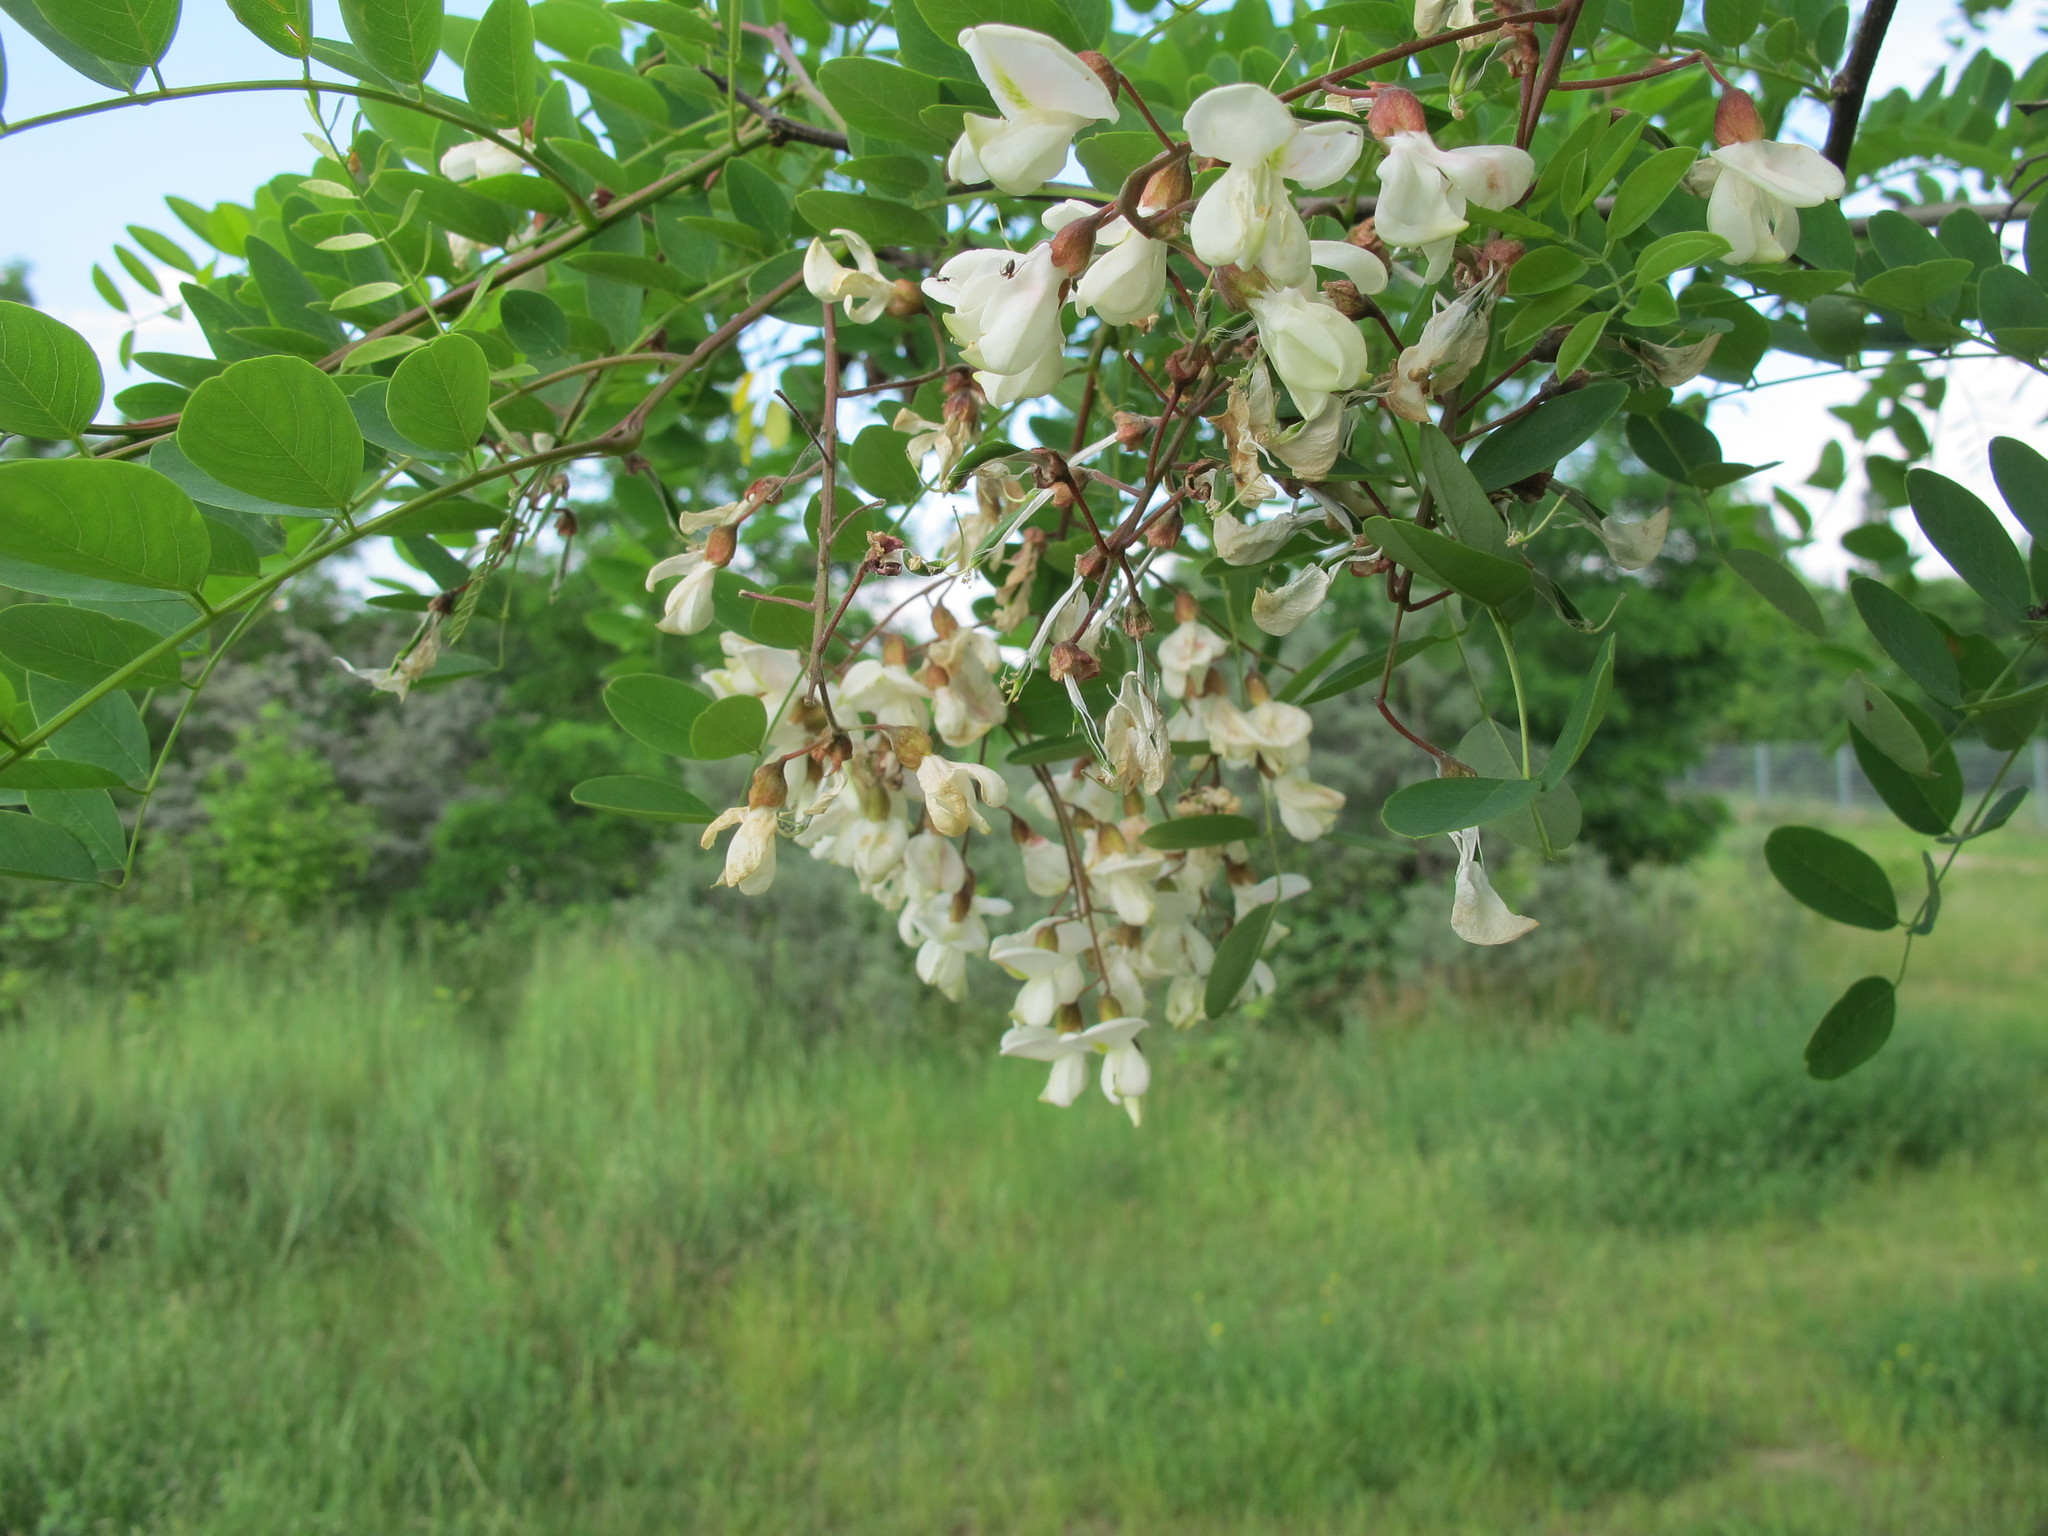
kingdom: Plantae
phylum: Tracheophyta
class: Magnoliopsida
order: Fabales
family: Fabaceae
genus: Robinia
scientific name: Robinia pseudoacacia
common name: Black locust
